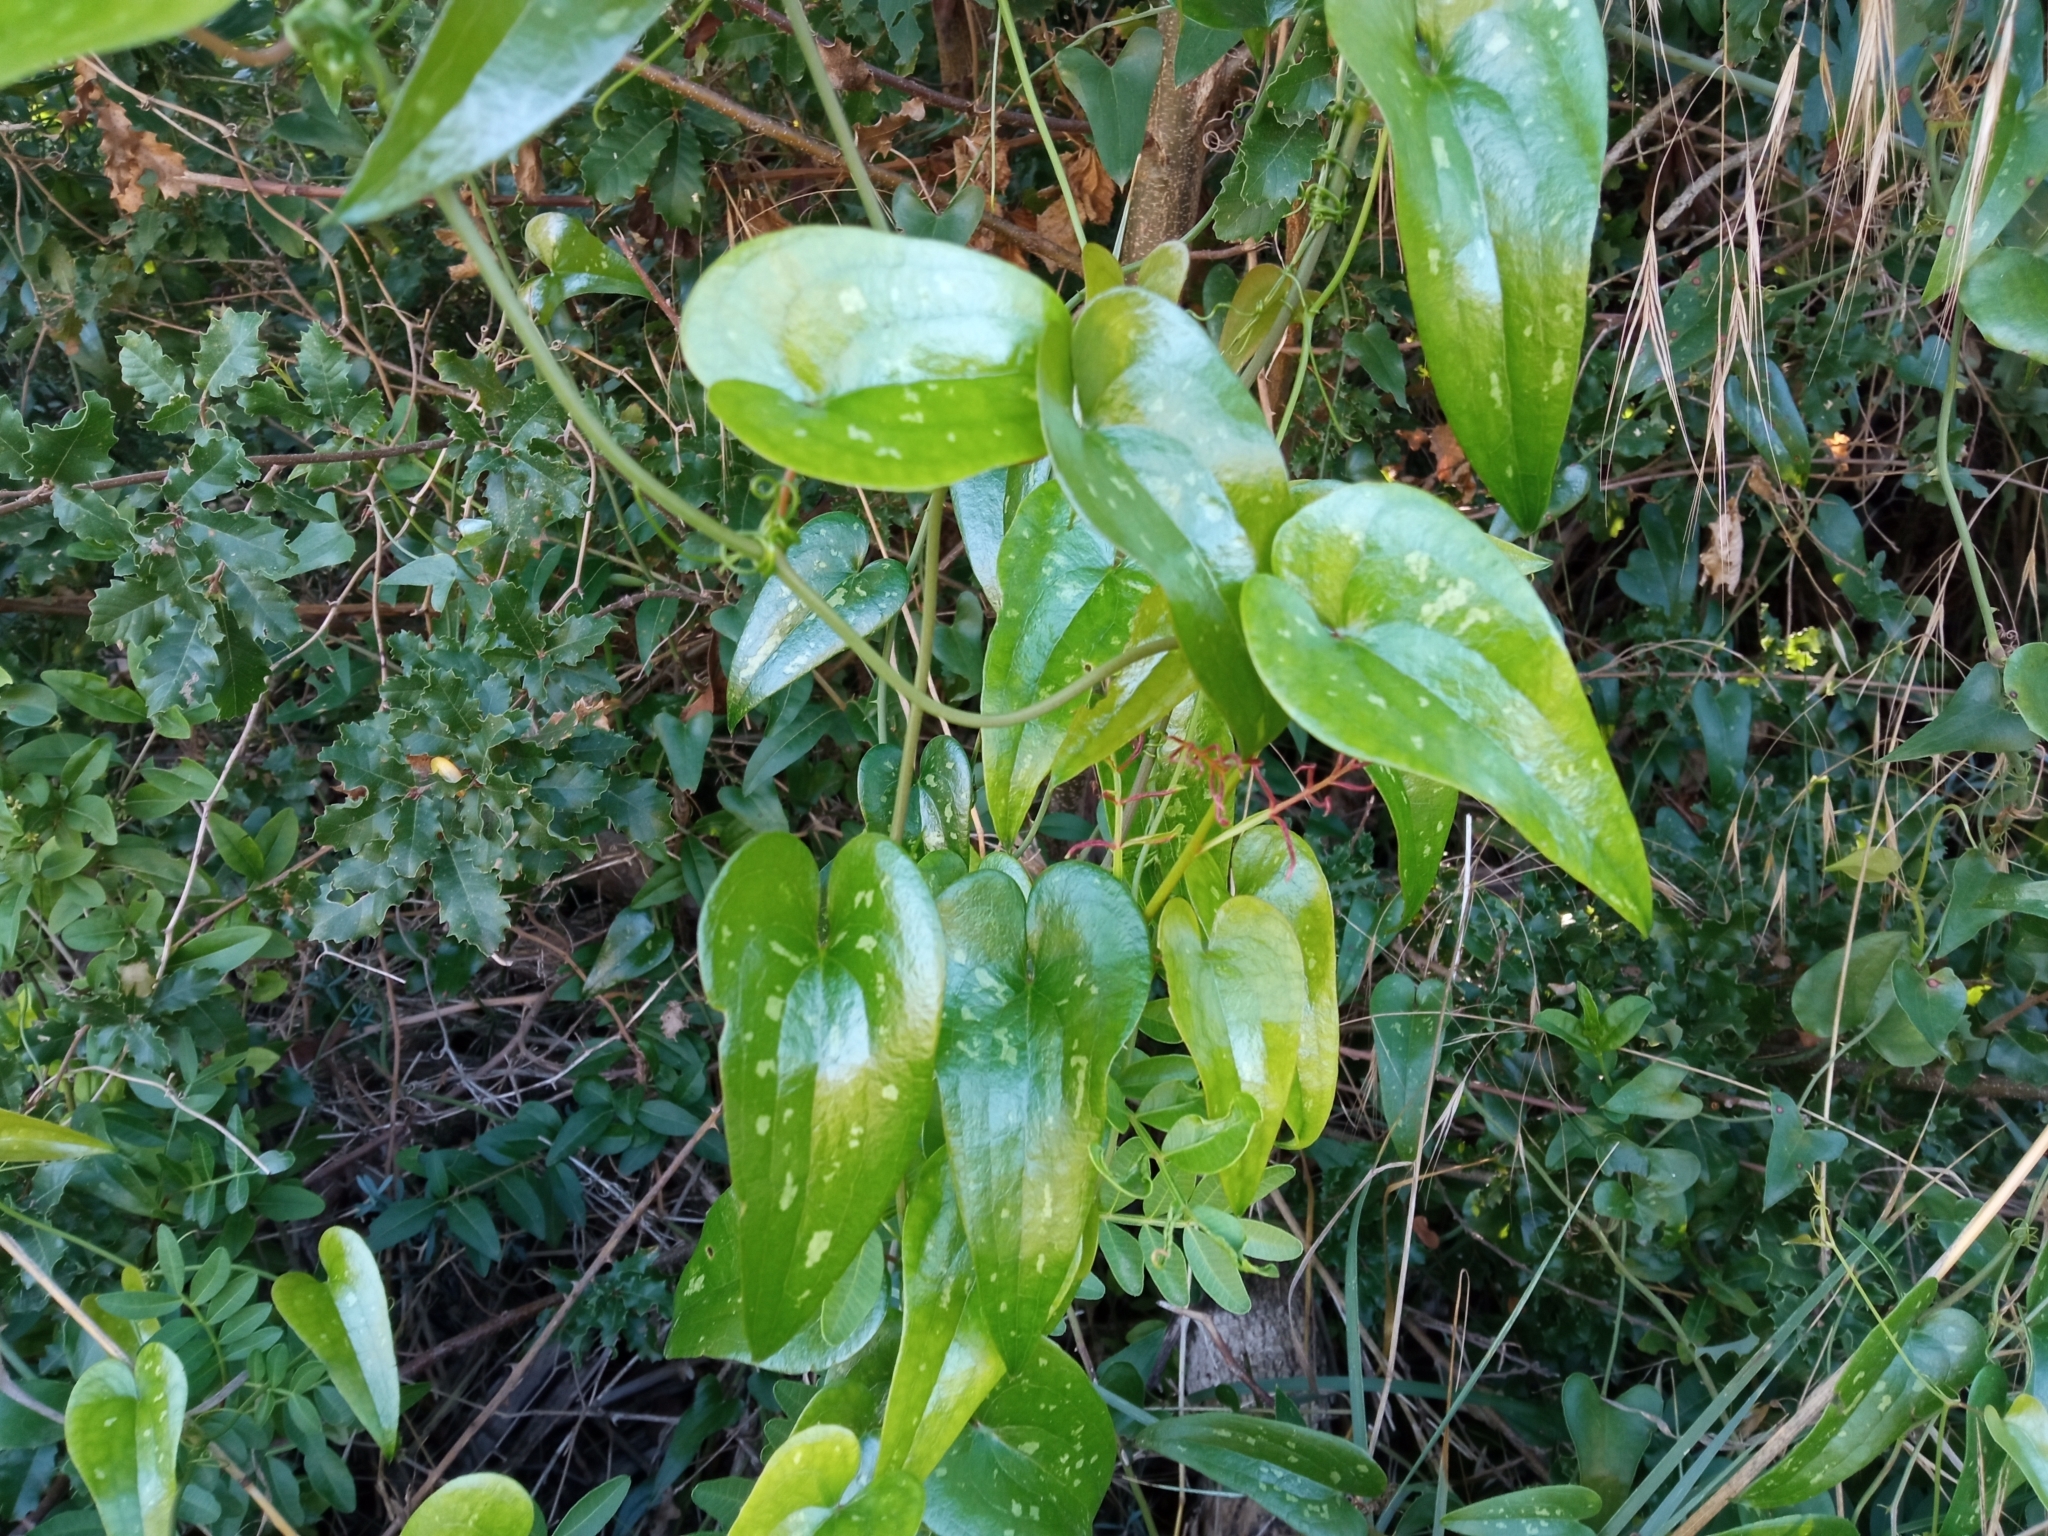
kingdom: Plantae
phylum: Tracheophyta
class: Liliopsida
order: Liliales
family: Smilacaceae
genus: Smilax
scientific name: Smilax aspera
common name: Common smilax
